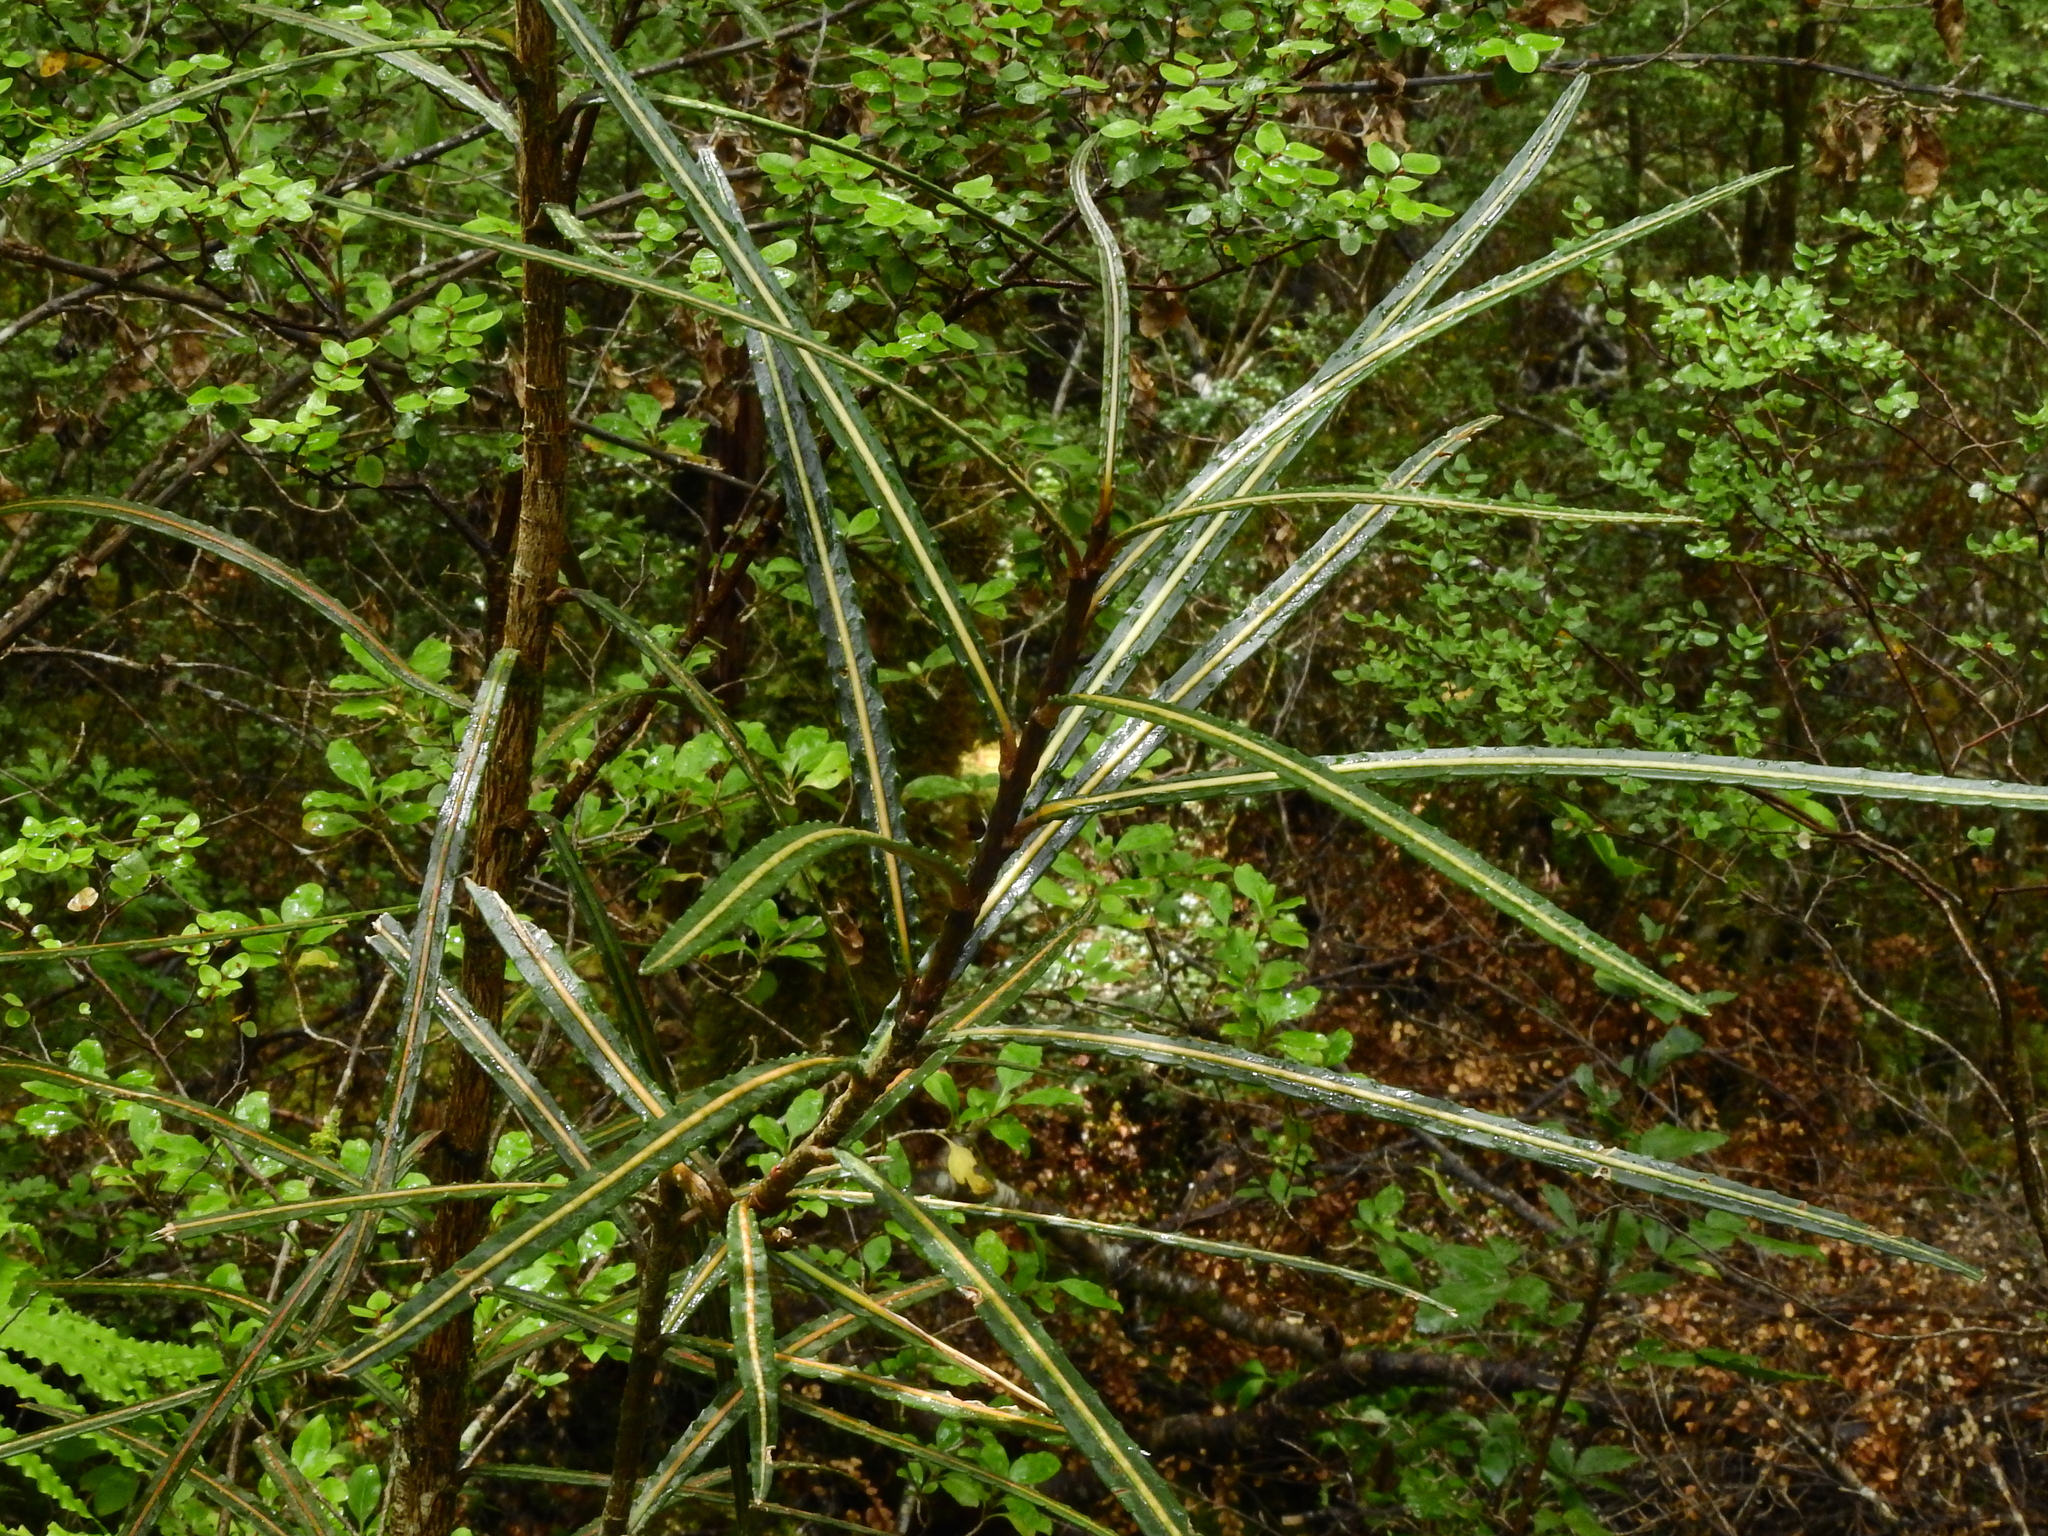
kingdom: Plantae
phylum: Tracheophyta
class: Magnoliopsida
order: Apiales
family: Araliaceae
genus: Pseudopanax
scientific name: Pseudopanax crassifolius
